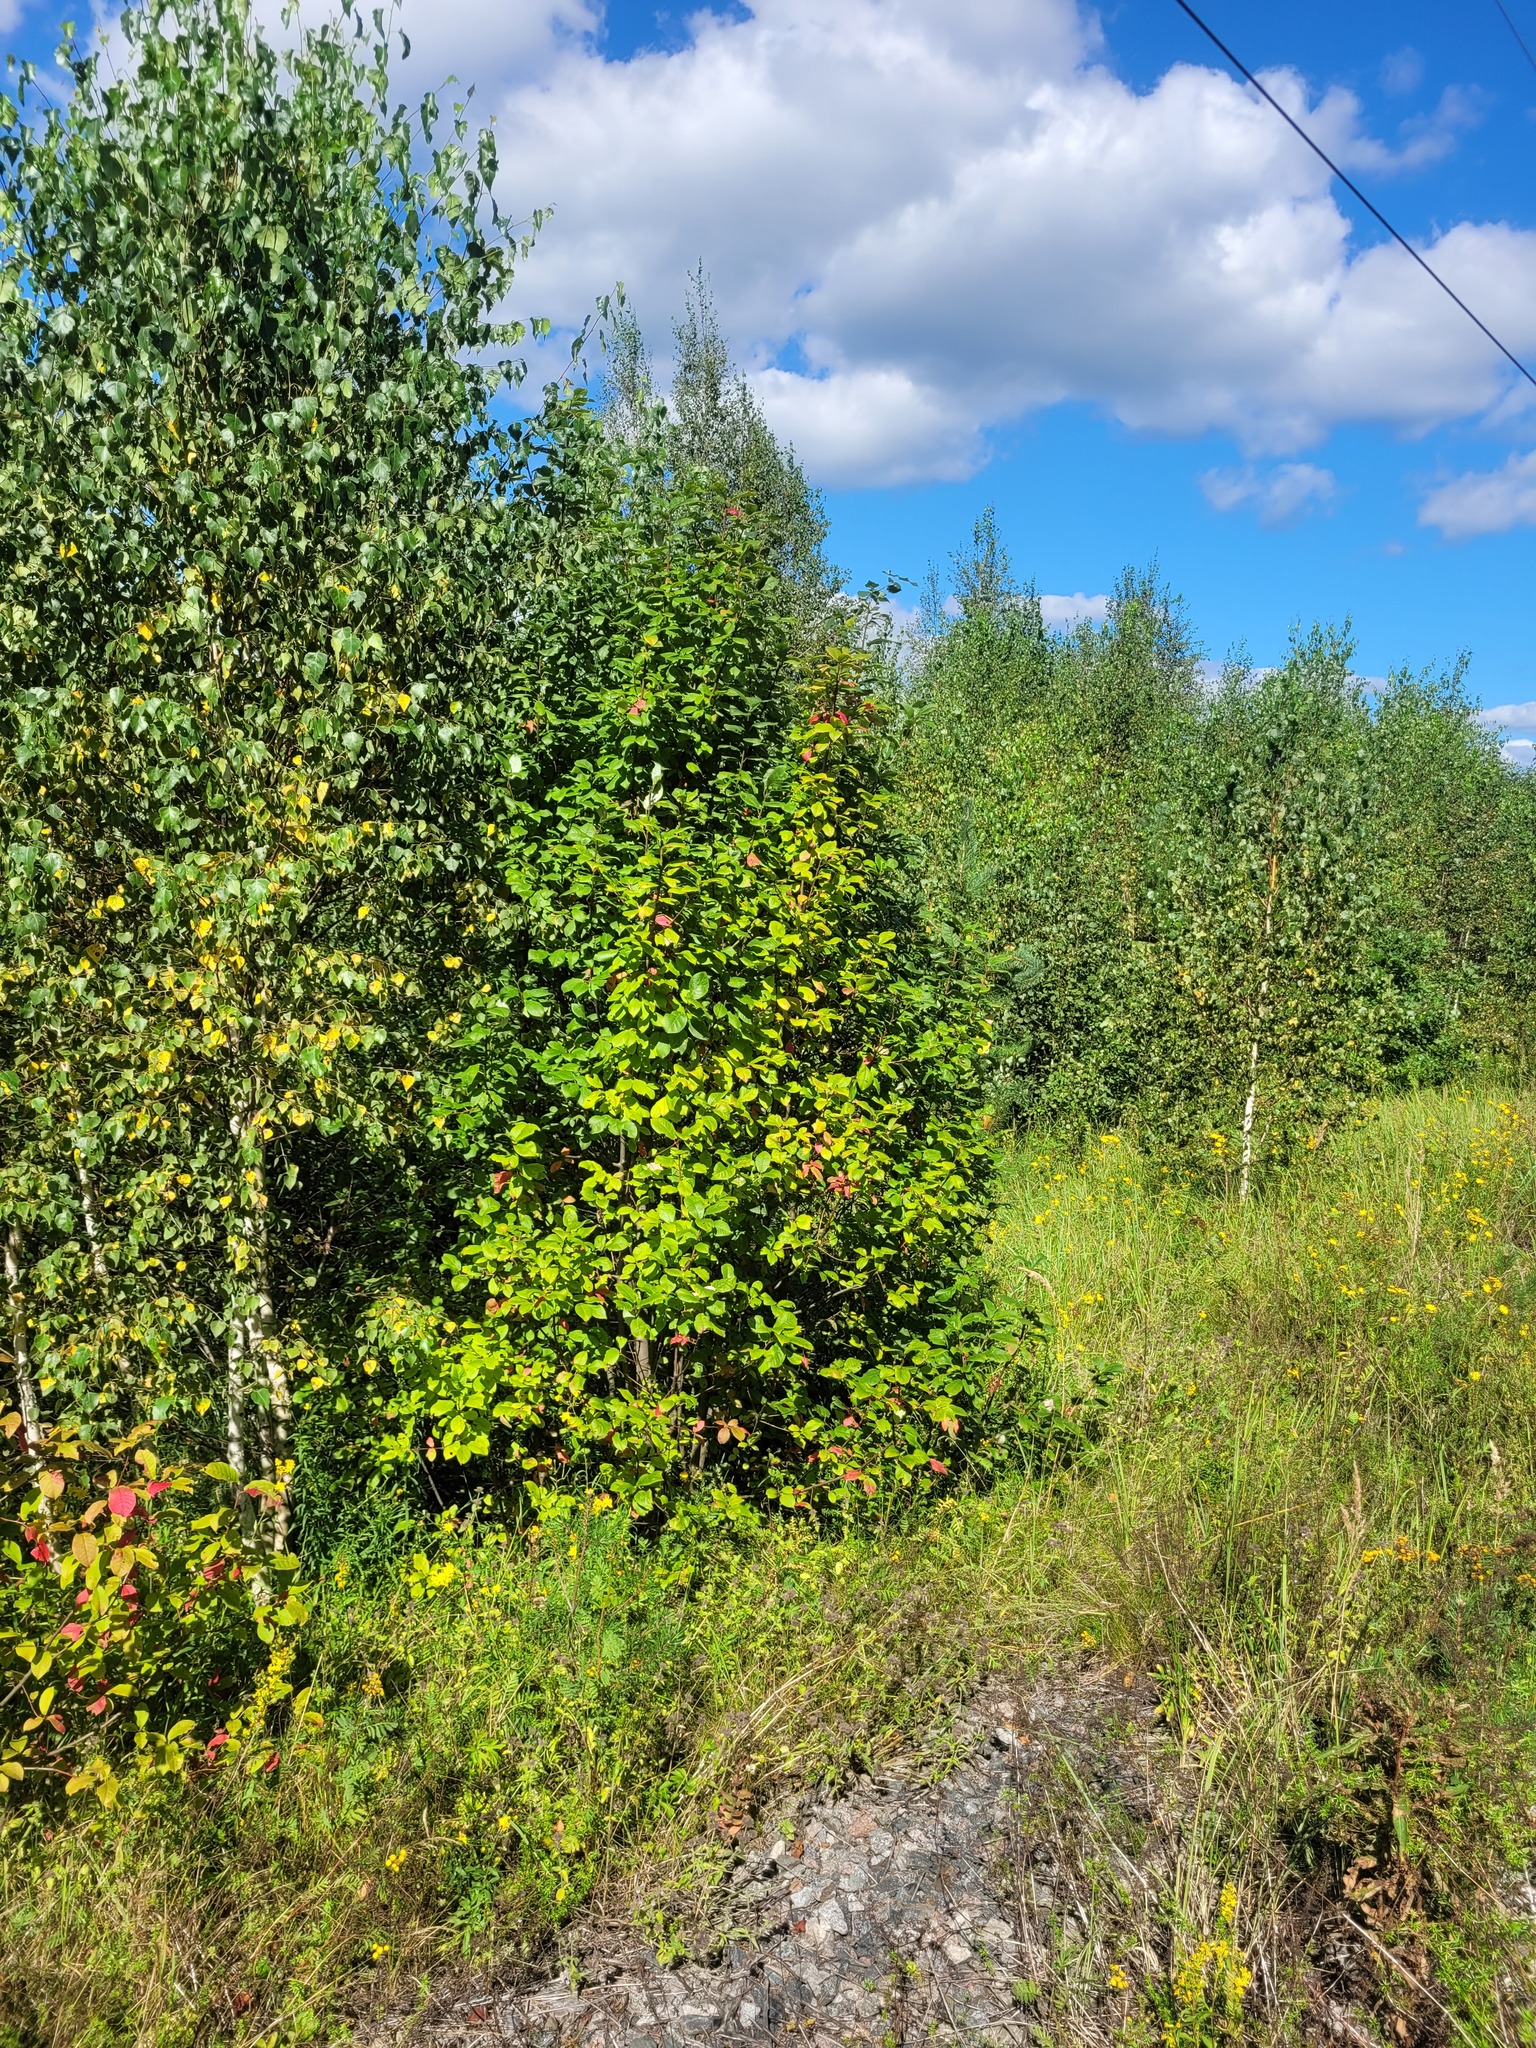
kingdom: Plantae
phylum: Tracheophyta
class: Magnoliopsida
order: Rosales
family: Rosaceae
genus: Prunus
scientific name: Prunus padus
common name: Bird cherry
